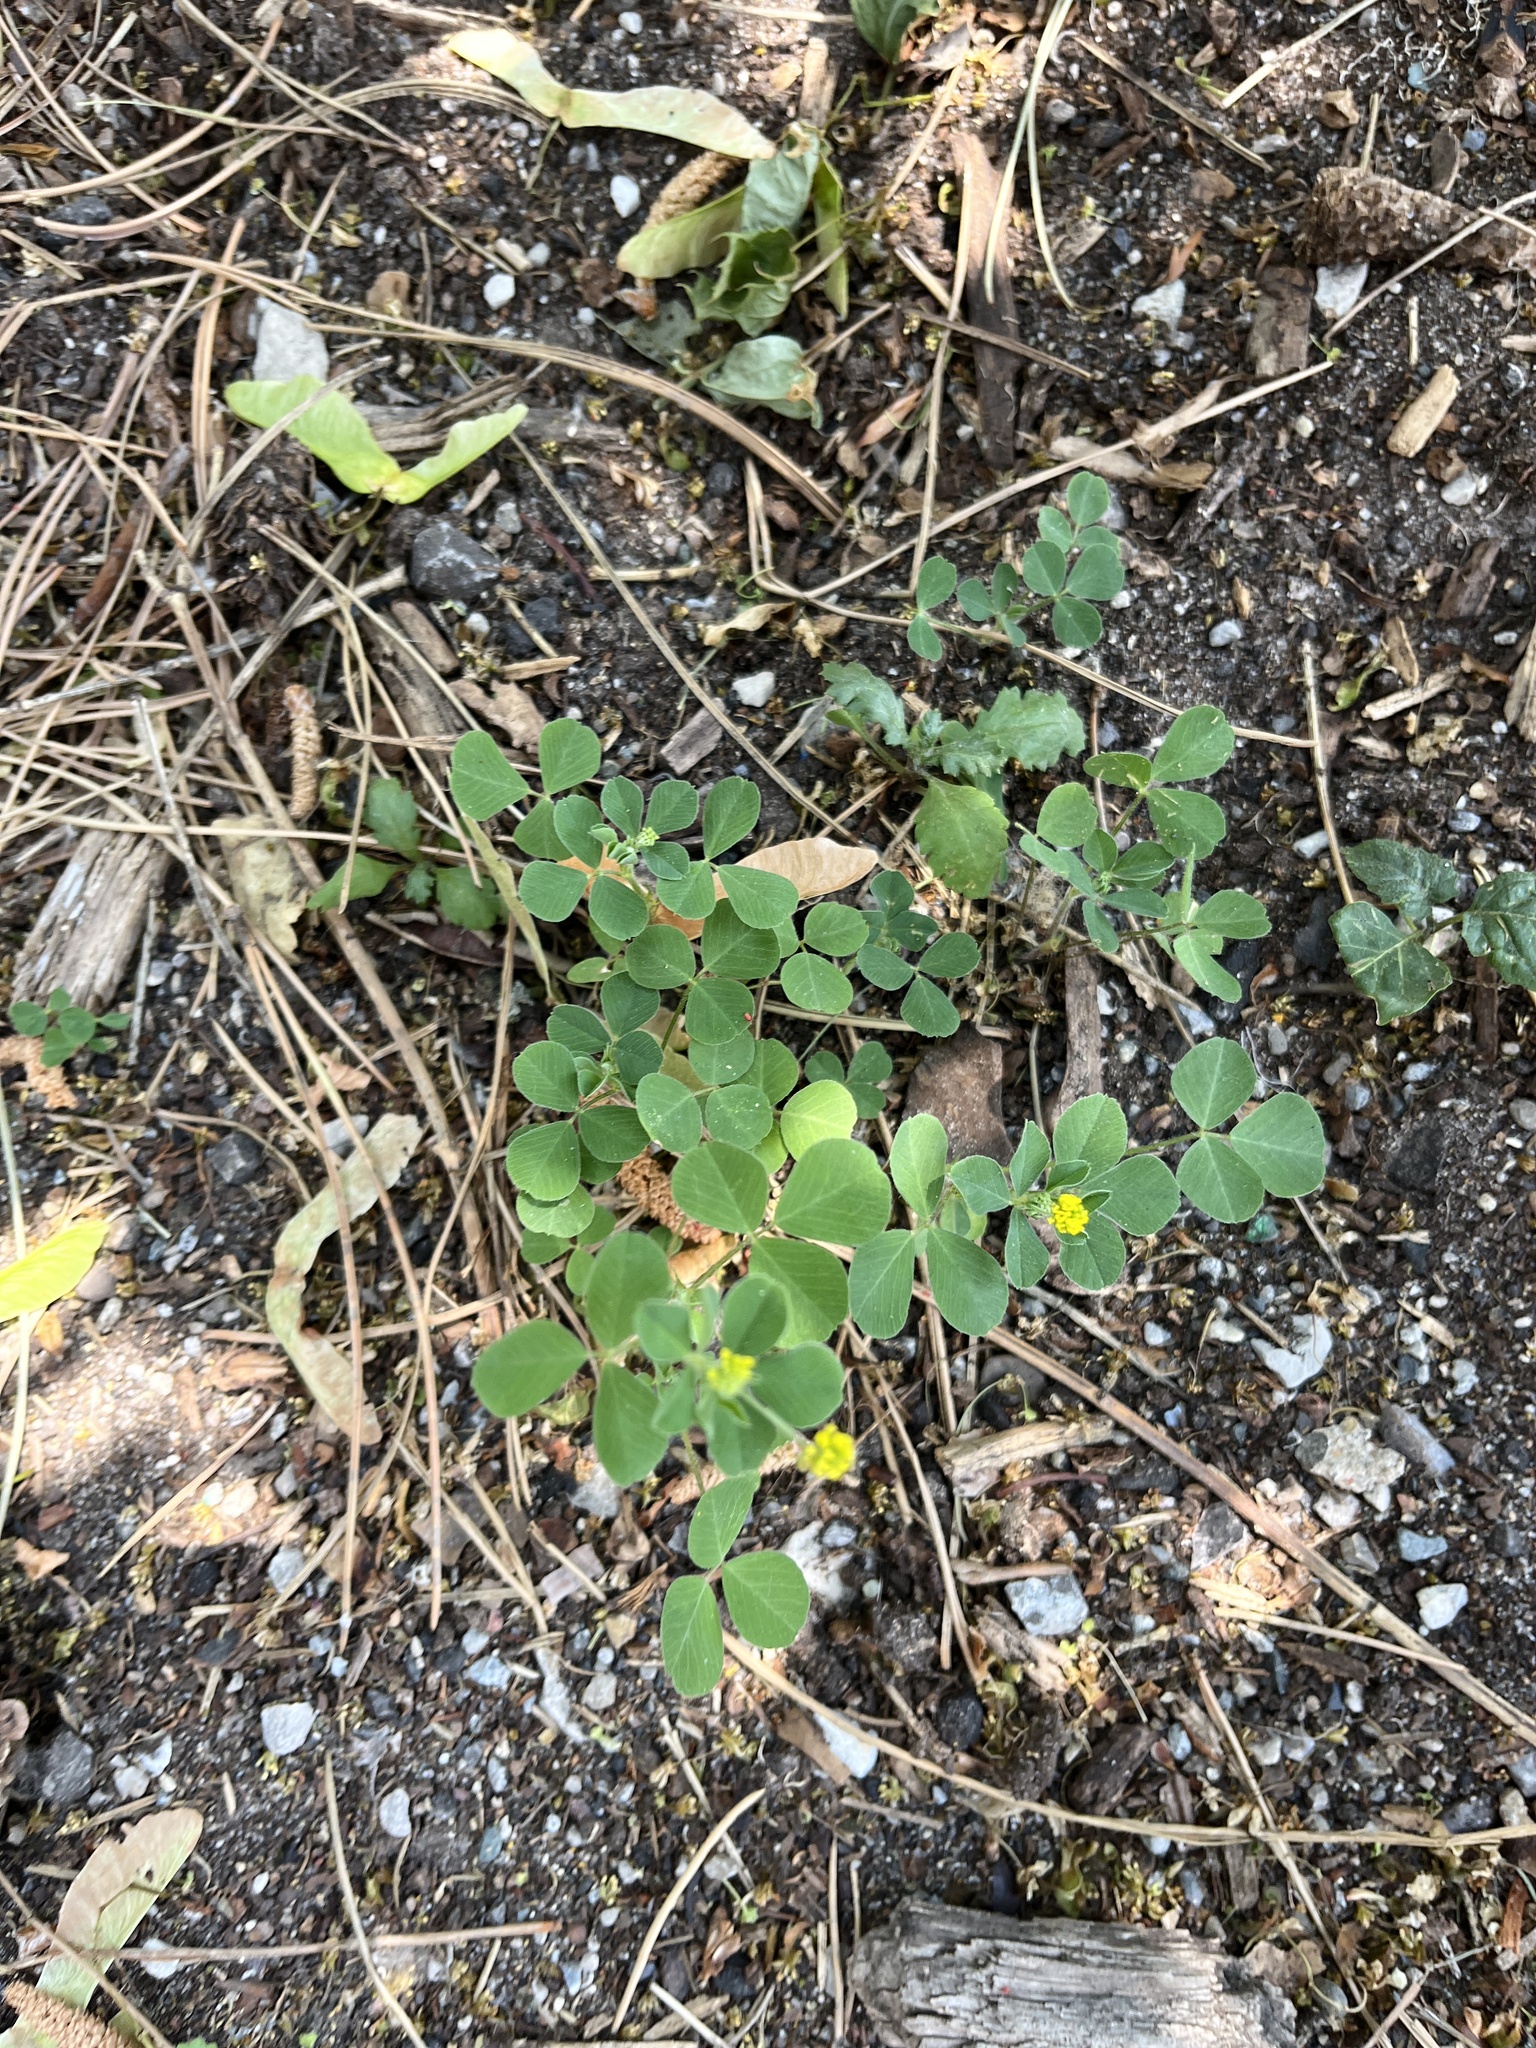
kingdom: Plantae
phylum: Tracheophyta
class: Magnoliopsida
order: Fabales
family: Fabaceae
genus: Medicago
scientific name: Medicago lupulina
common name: Black medick
